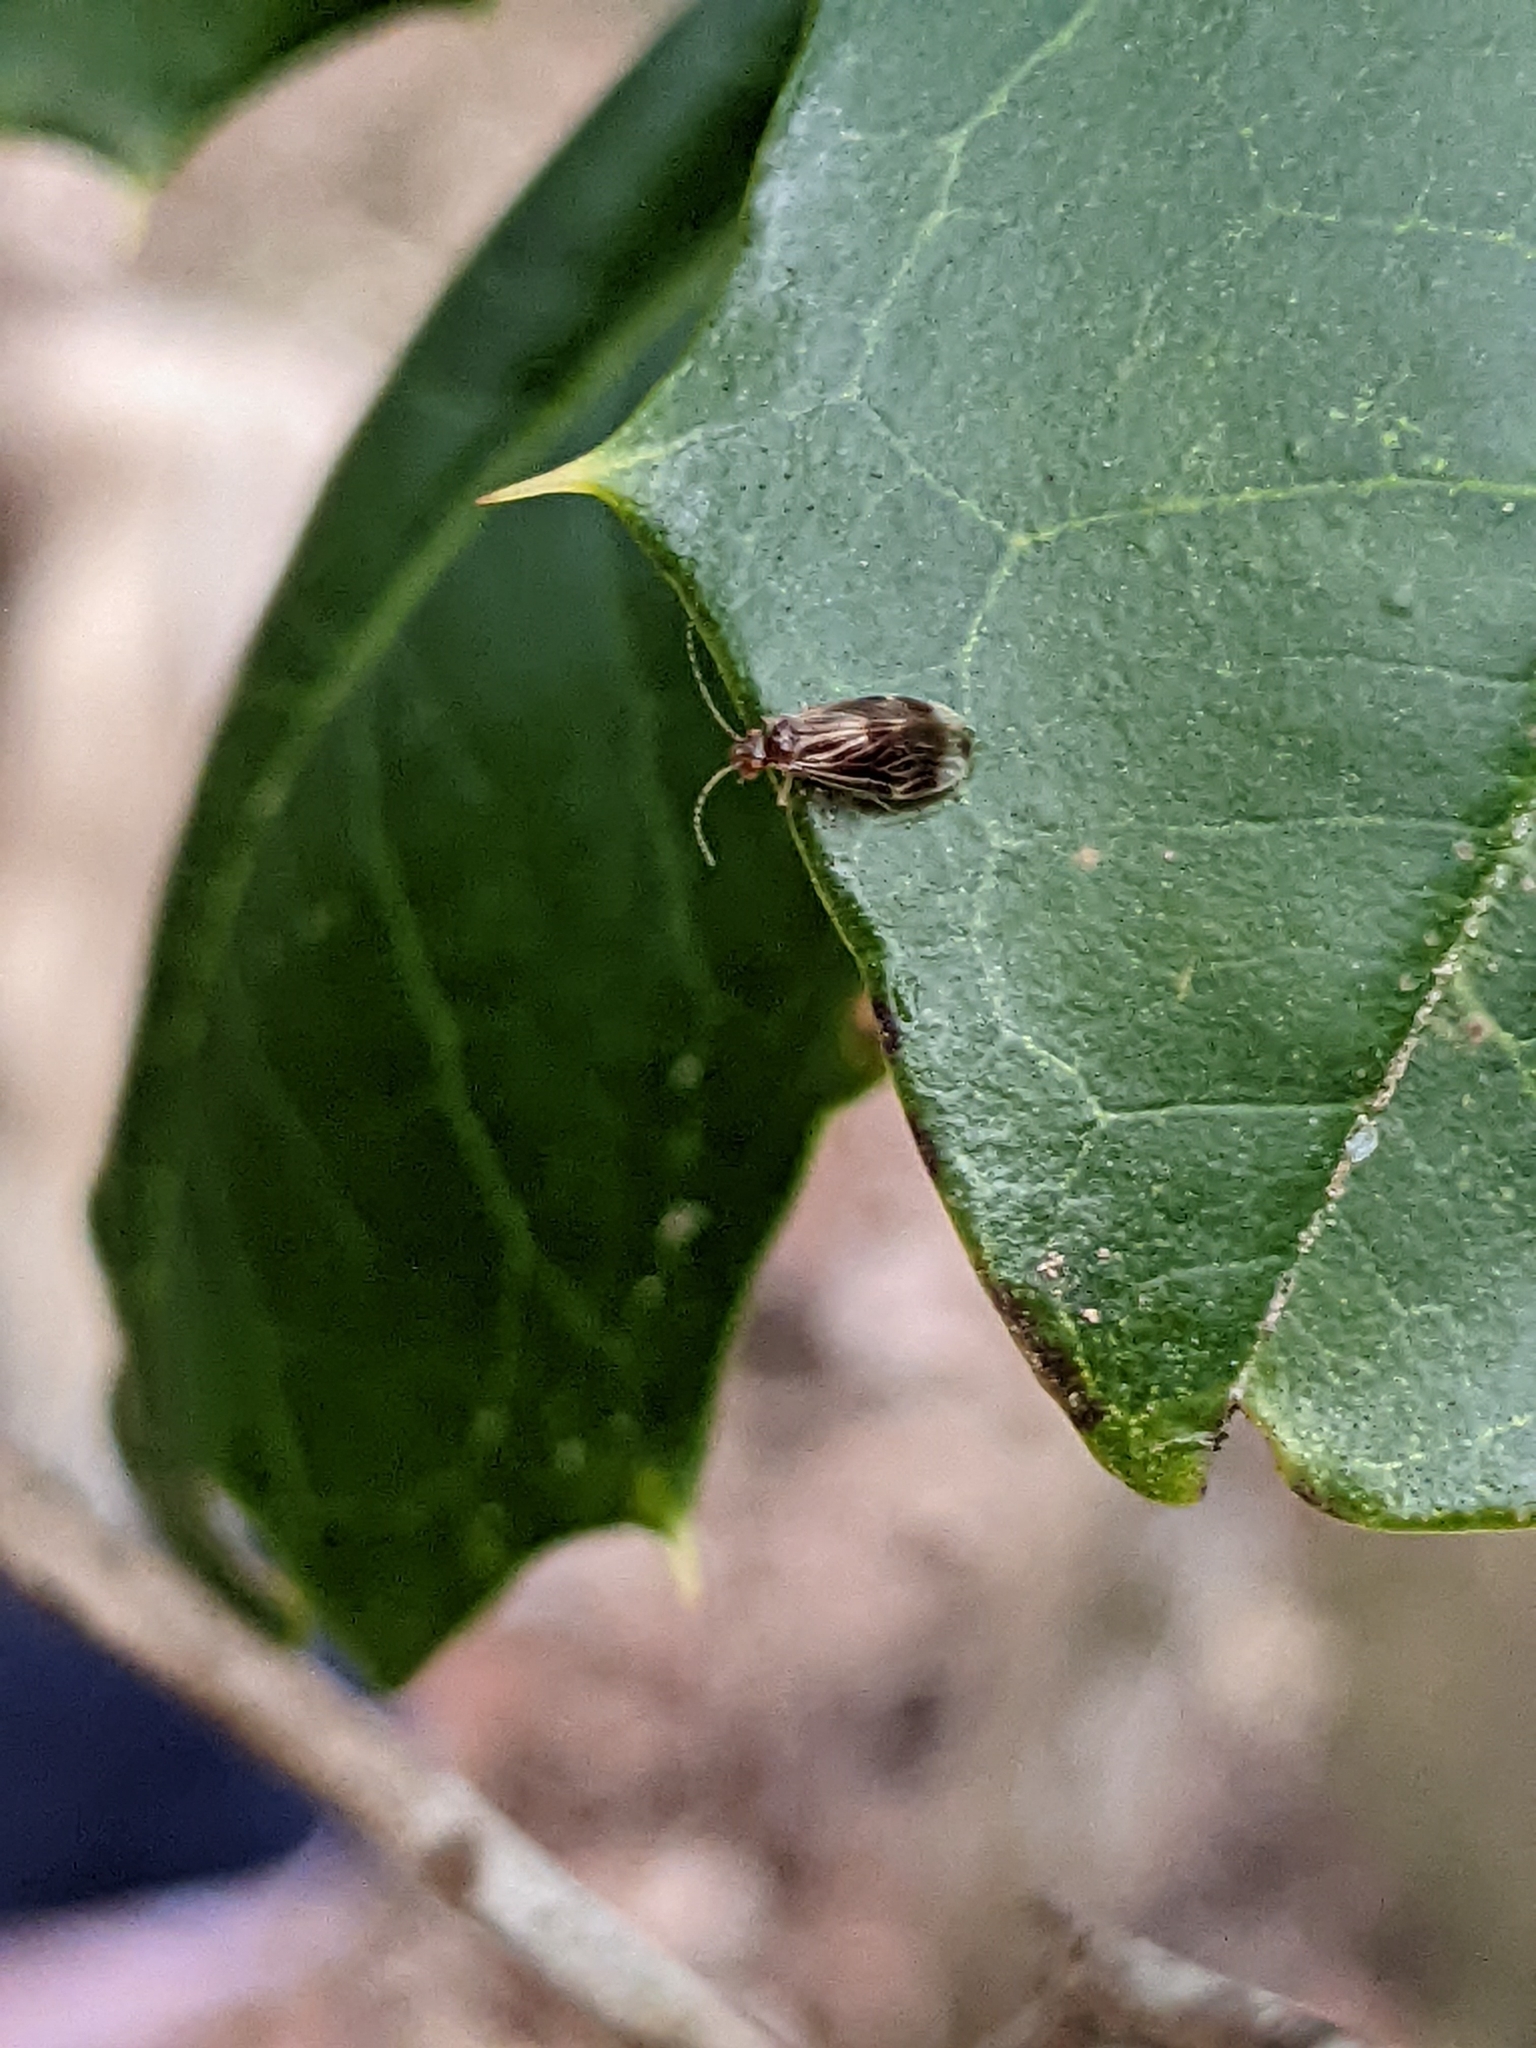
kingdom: Animalia
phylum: Arthropoda
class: Insecta
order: Psocodea
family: Amphipsocidae
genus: Polypsocus
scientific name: Polypsocus corruptus
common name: Corrupt barklouse
